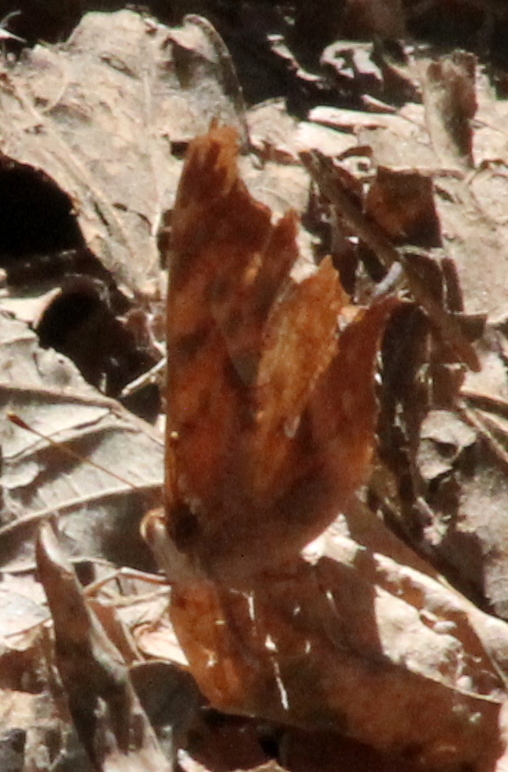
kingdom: Animalia
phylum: Arthropoda
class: Insecta
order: Lepidoptera
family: Nymphalidae
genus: Polygonia
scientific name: Polygonia interrogationis
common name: Question mark
